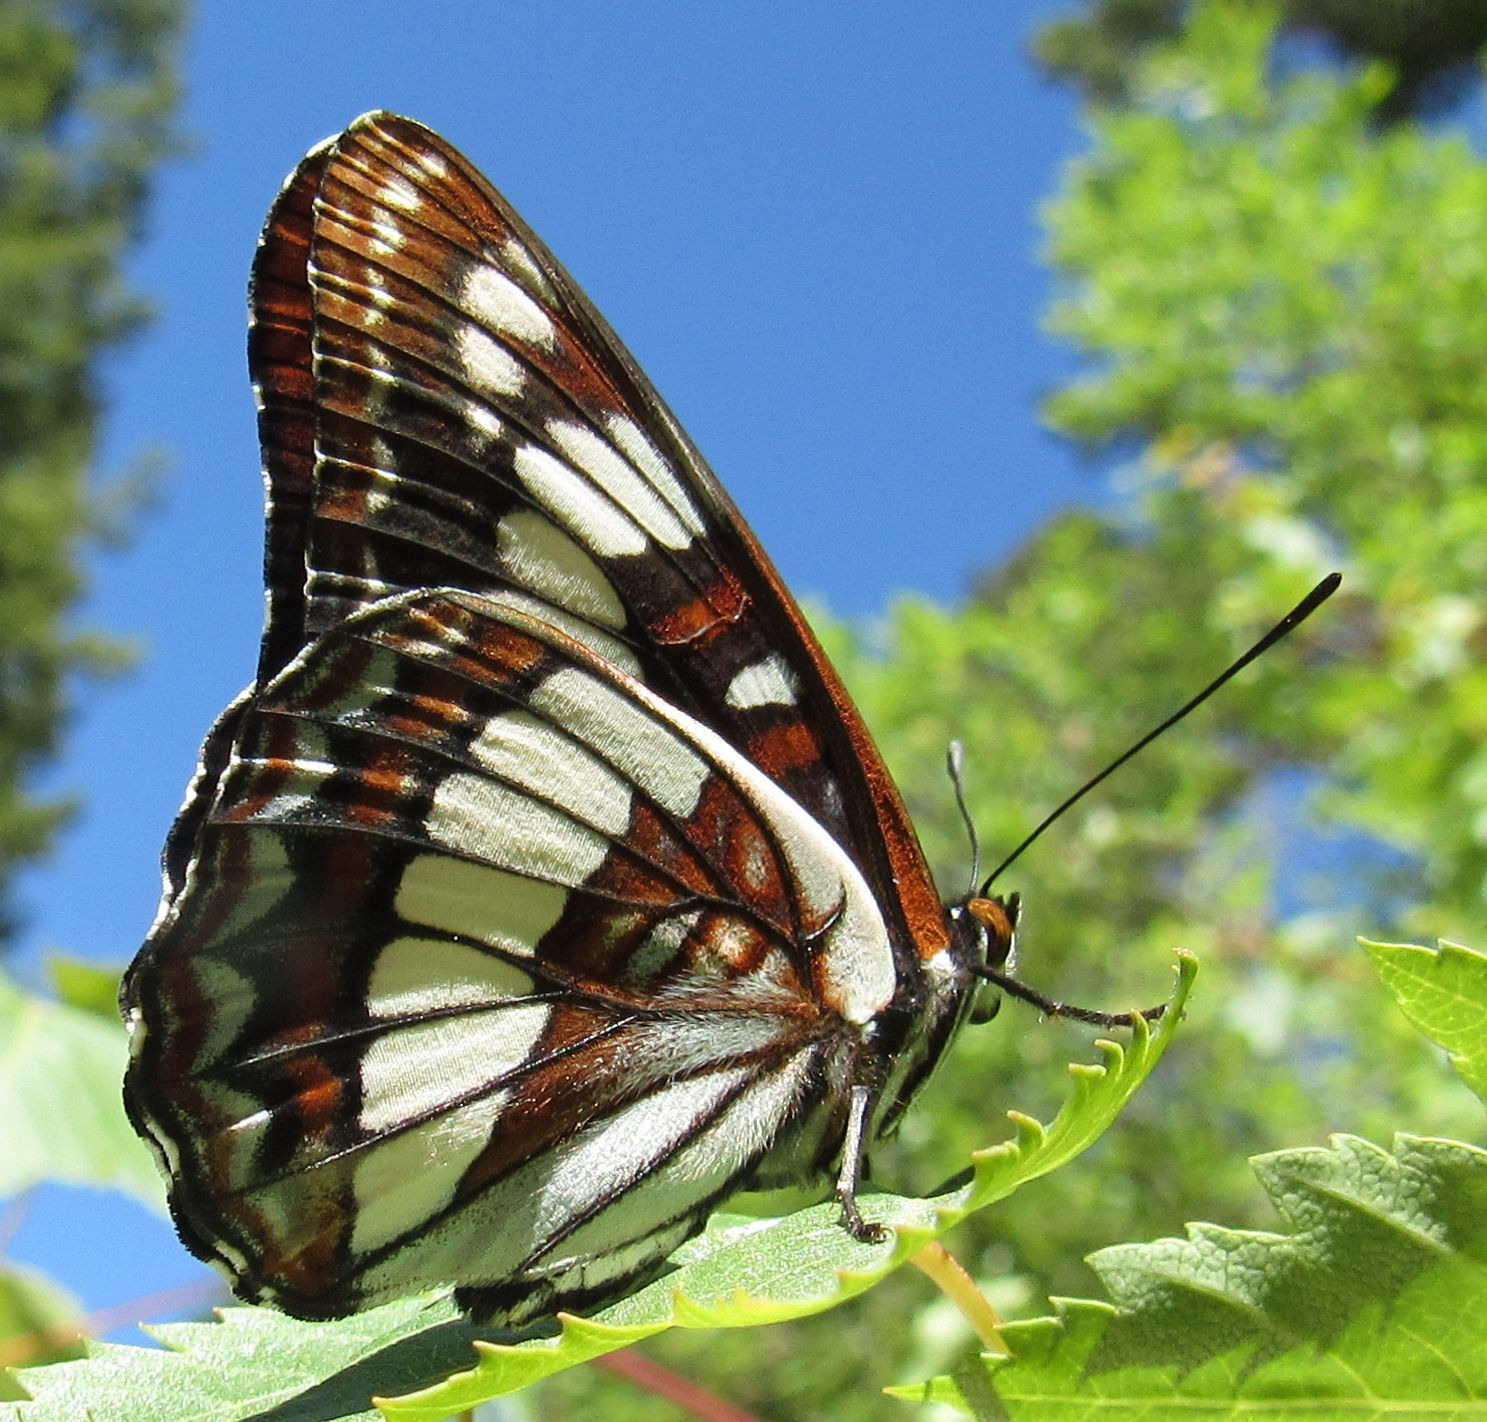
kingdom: Animalia
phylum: Arthropoda
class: Insecta
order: Lepidoptera
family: Nymphalidae
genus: Limenitis
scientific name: Limenitis lorquini
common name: Lorquin's admiral
